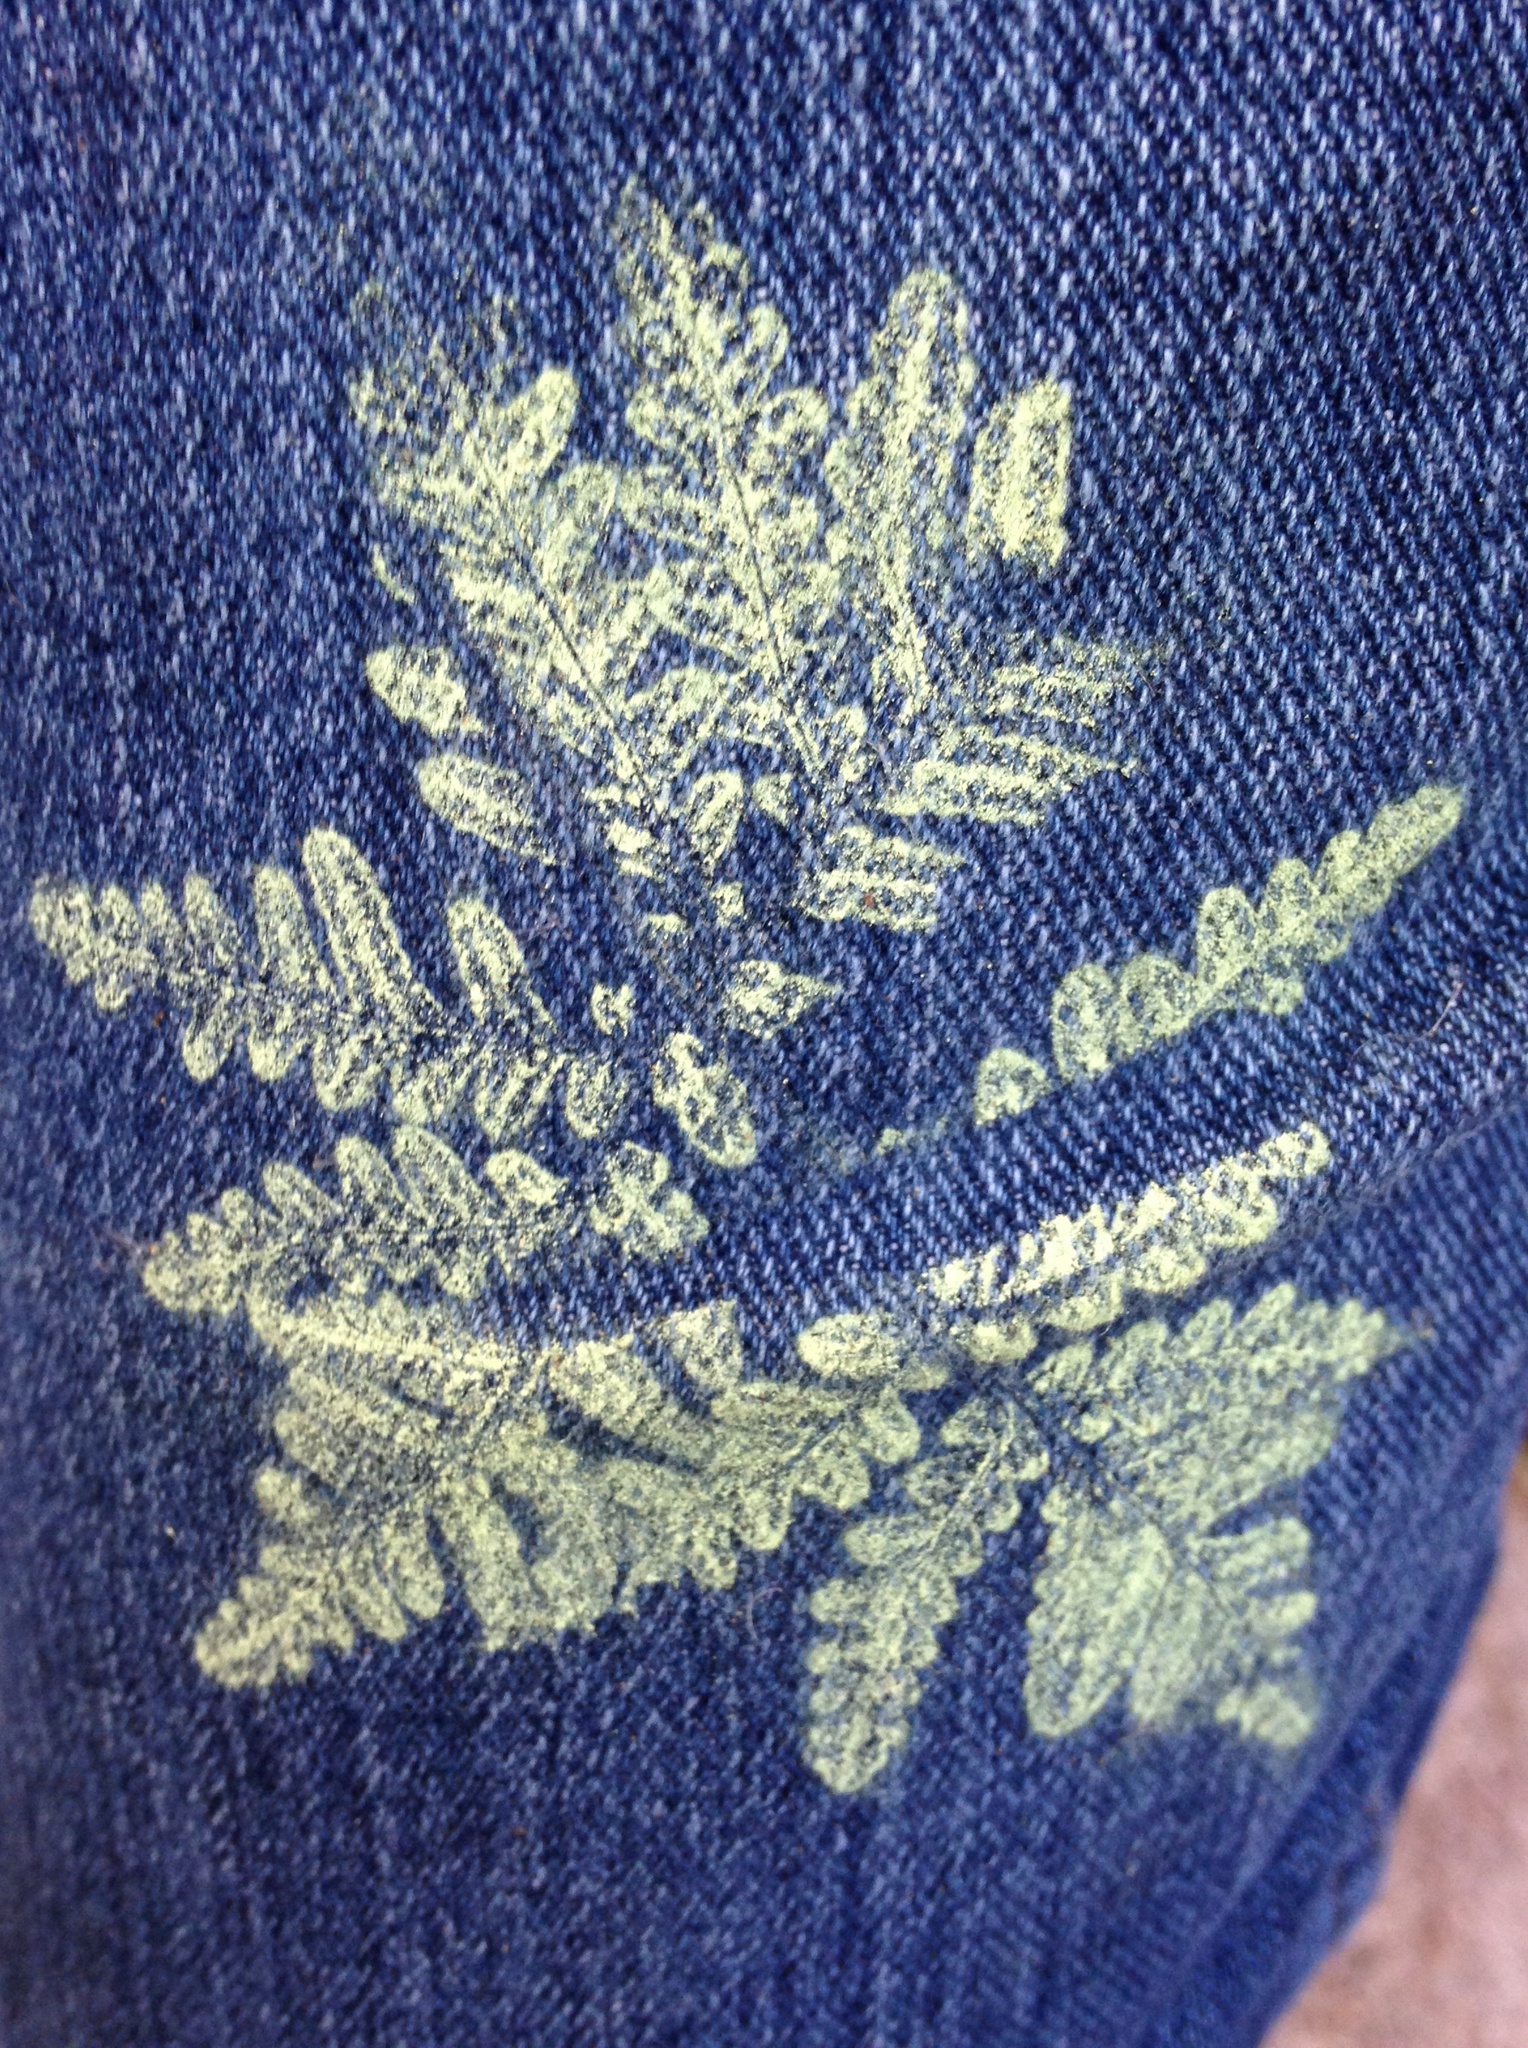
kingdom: Plantae
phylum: Tracheophyta
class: Polypodiopsida
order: Polypodiales
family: Pteridaceae
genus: Pentagramma
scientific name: Pentagramma triangularis
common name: Gold fern
